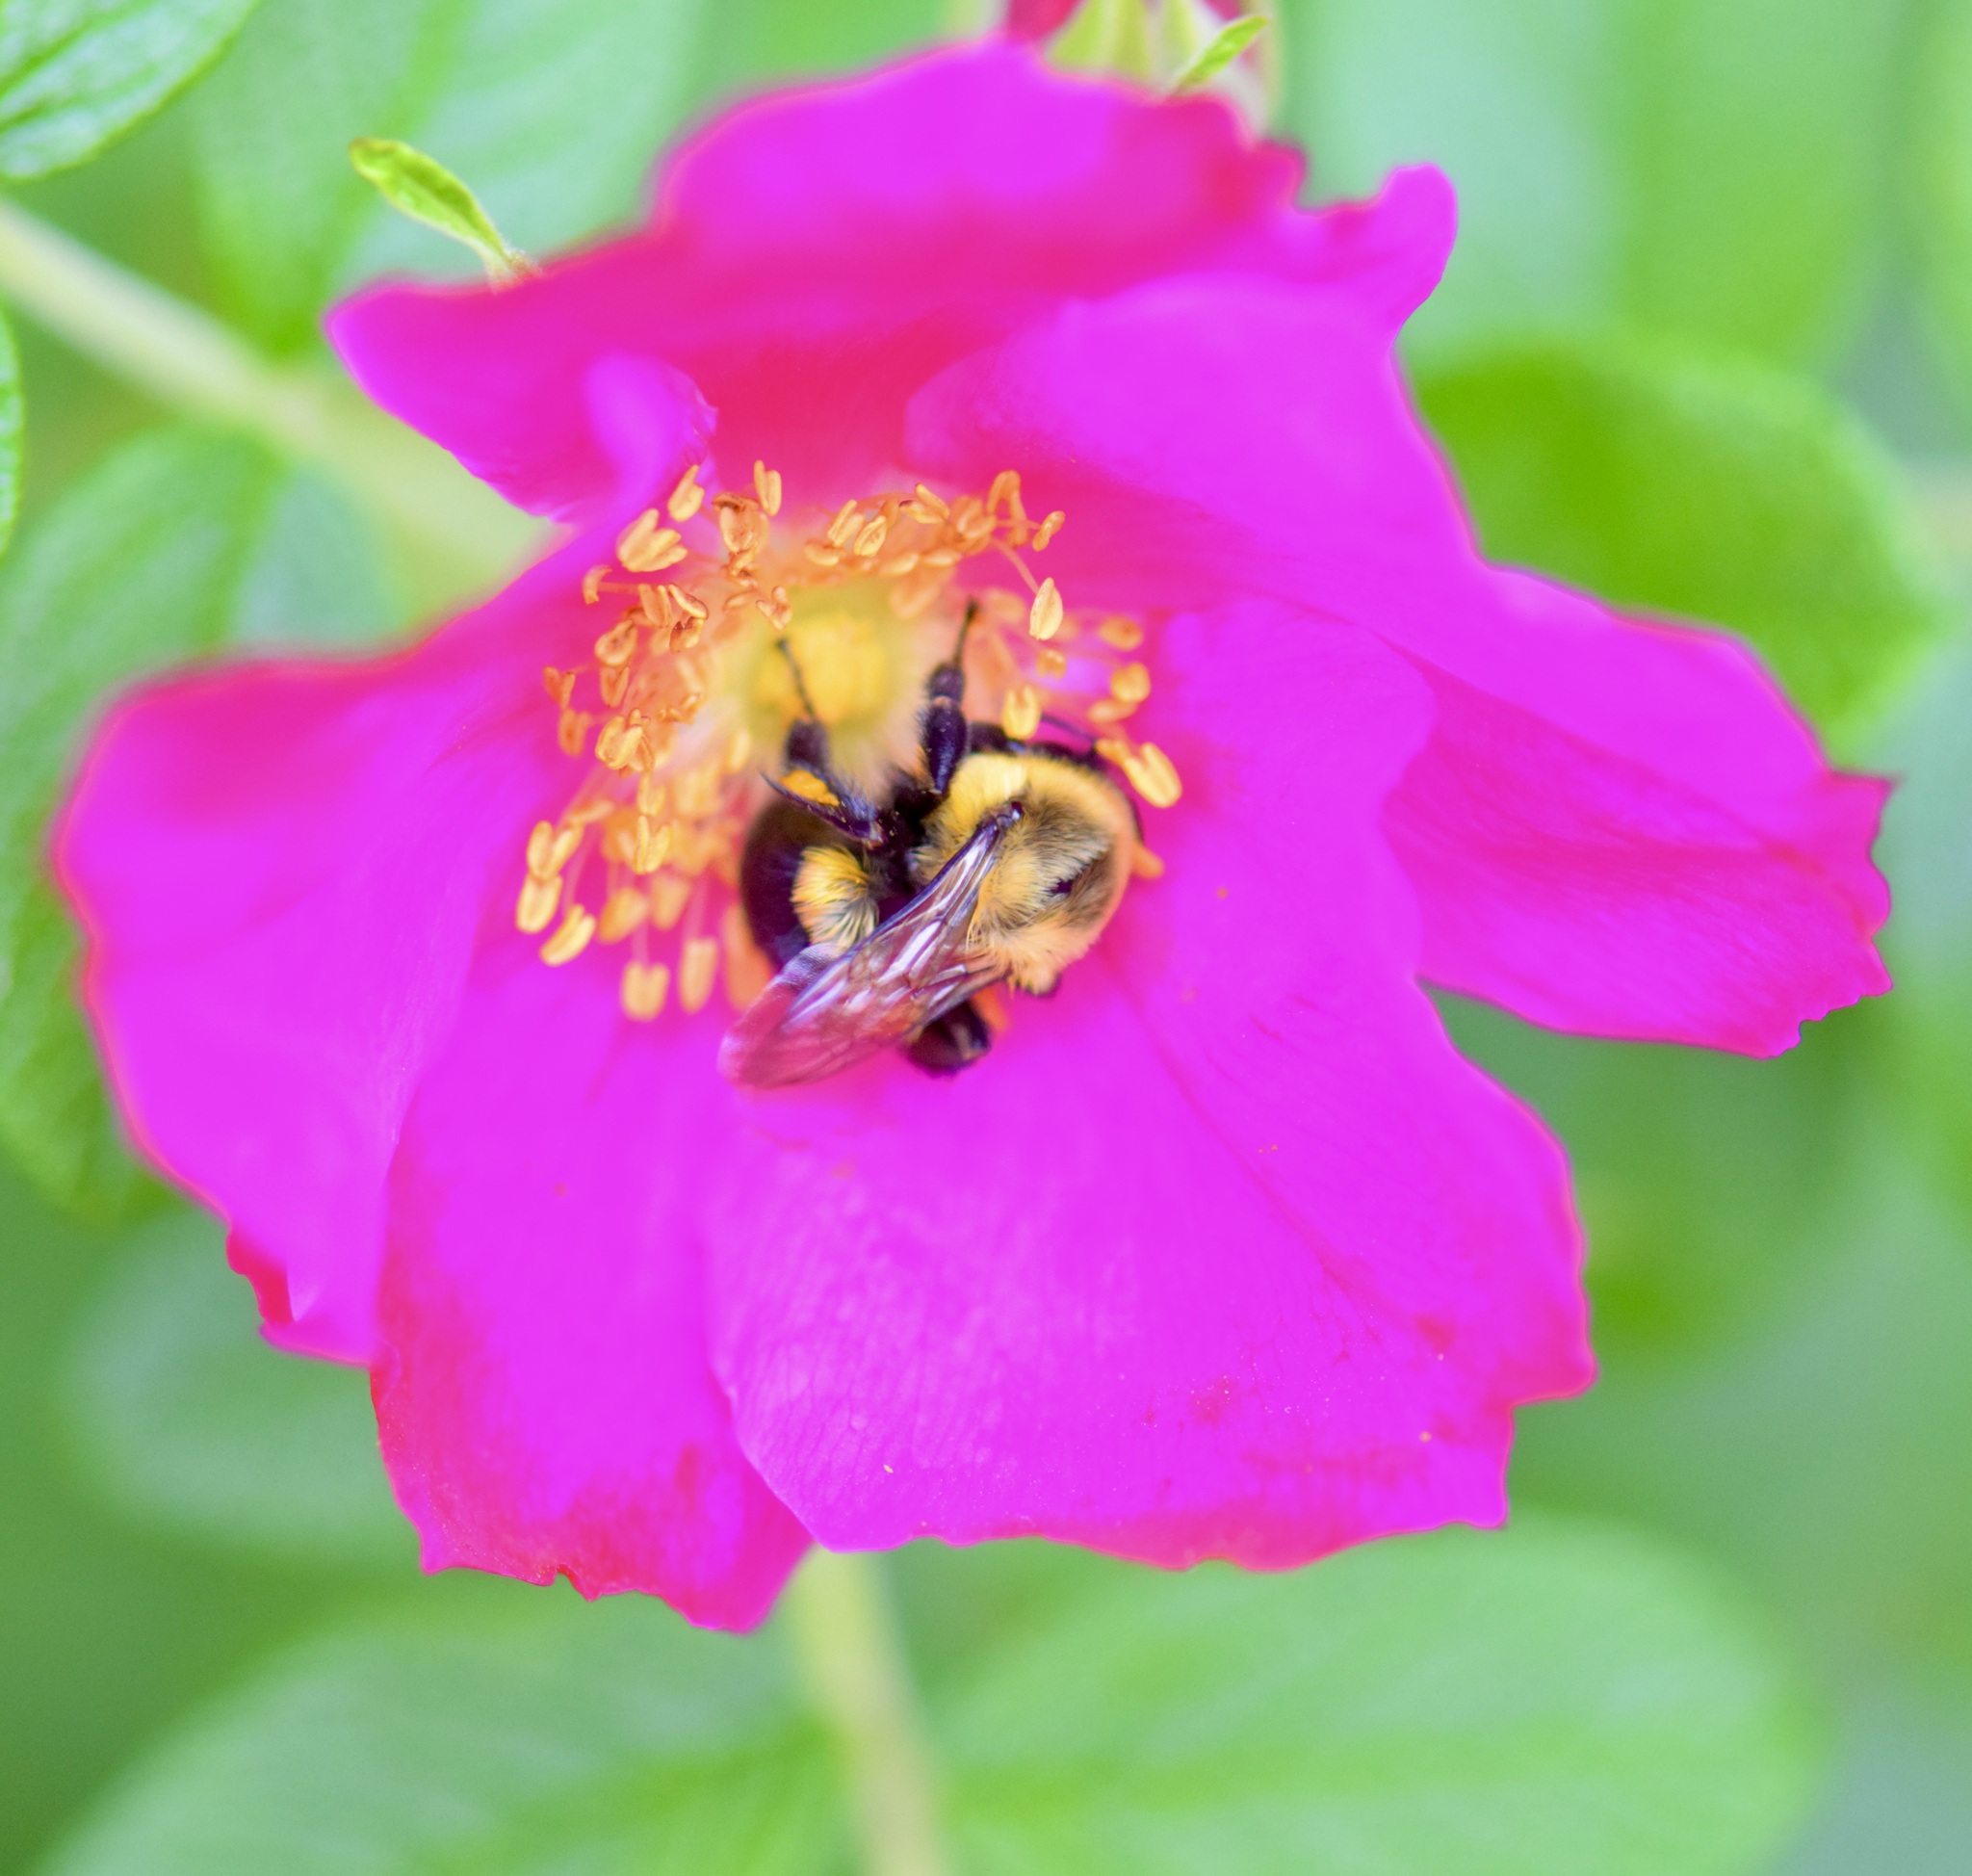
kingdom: Animalia
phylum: Arthropoda
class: Insecta
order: Hymenoptera
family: Apidae
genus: Bombus
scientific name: Bombus impatiens
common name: Common eastern bumble bee
